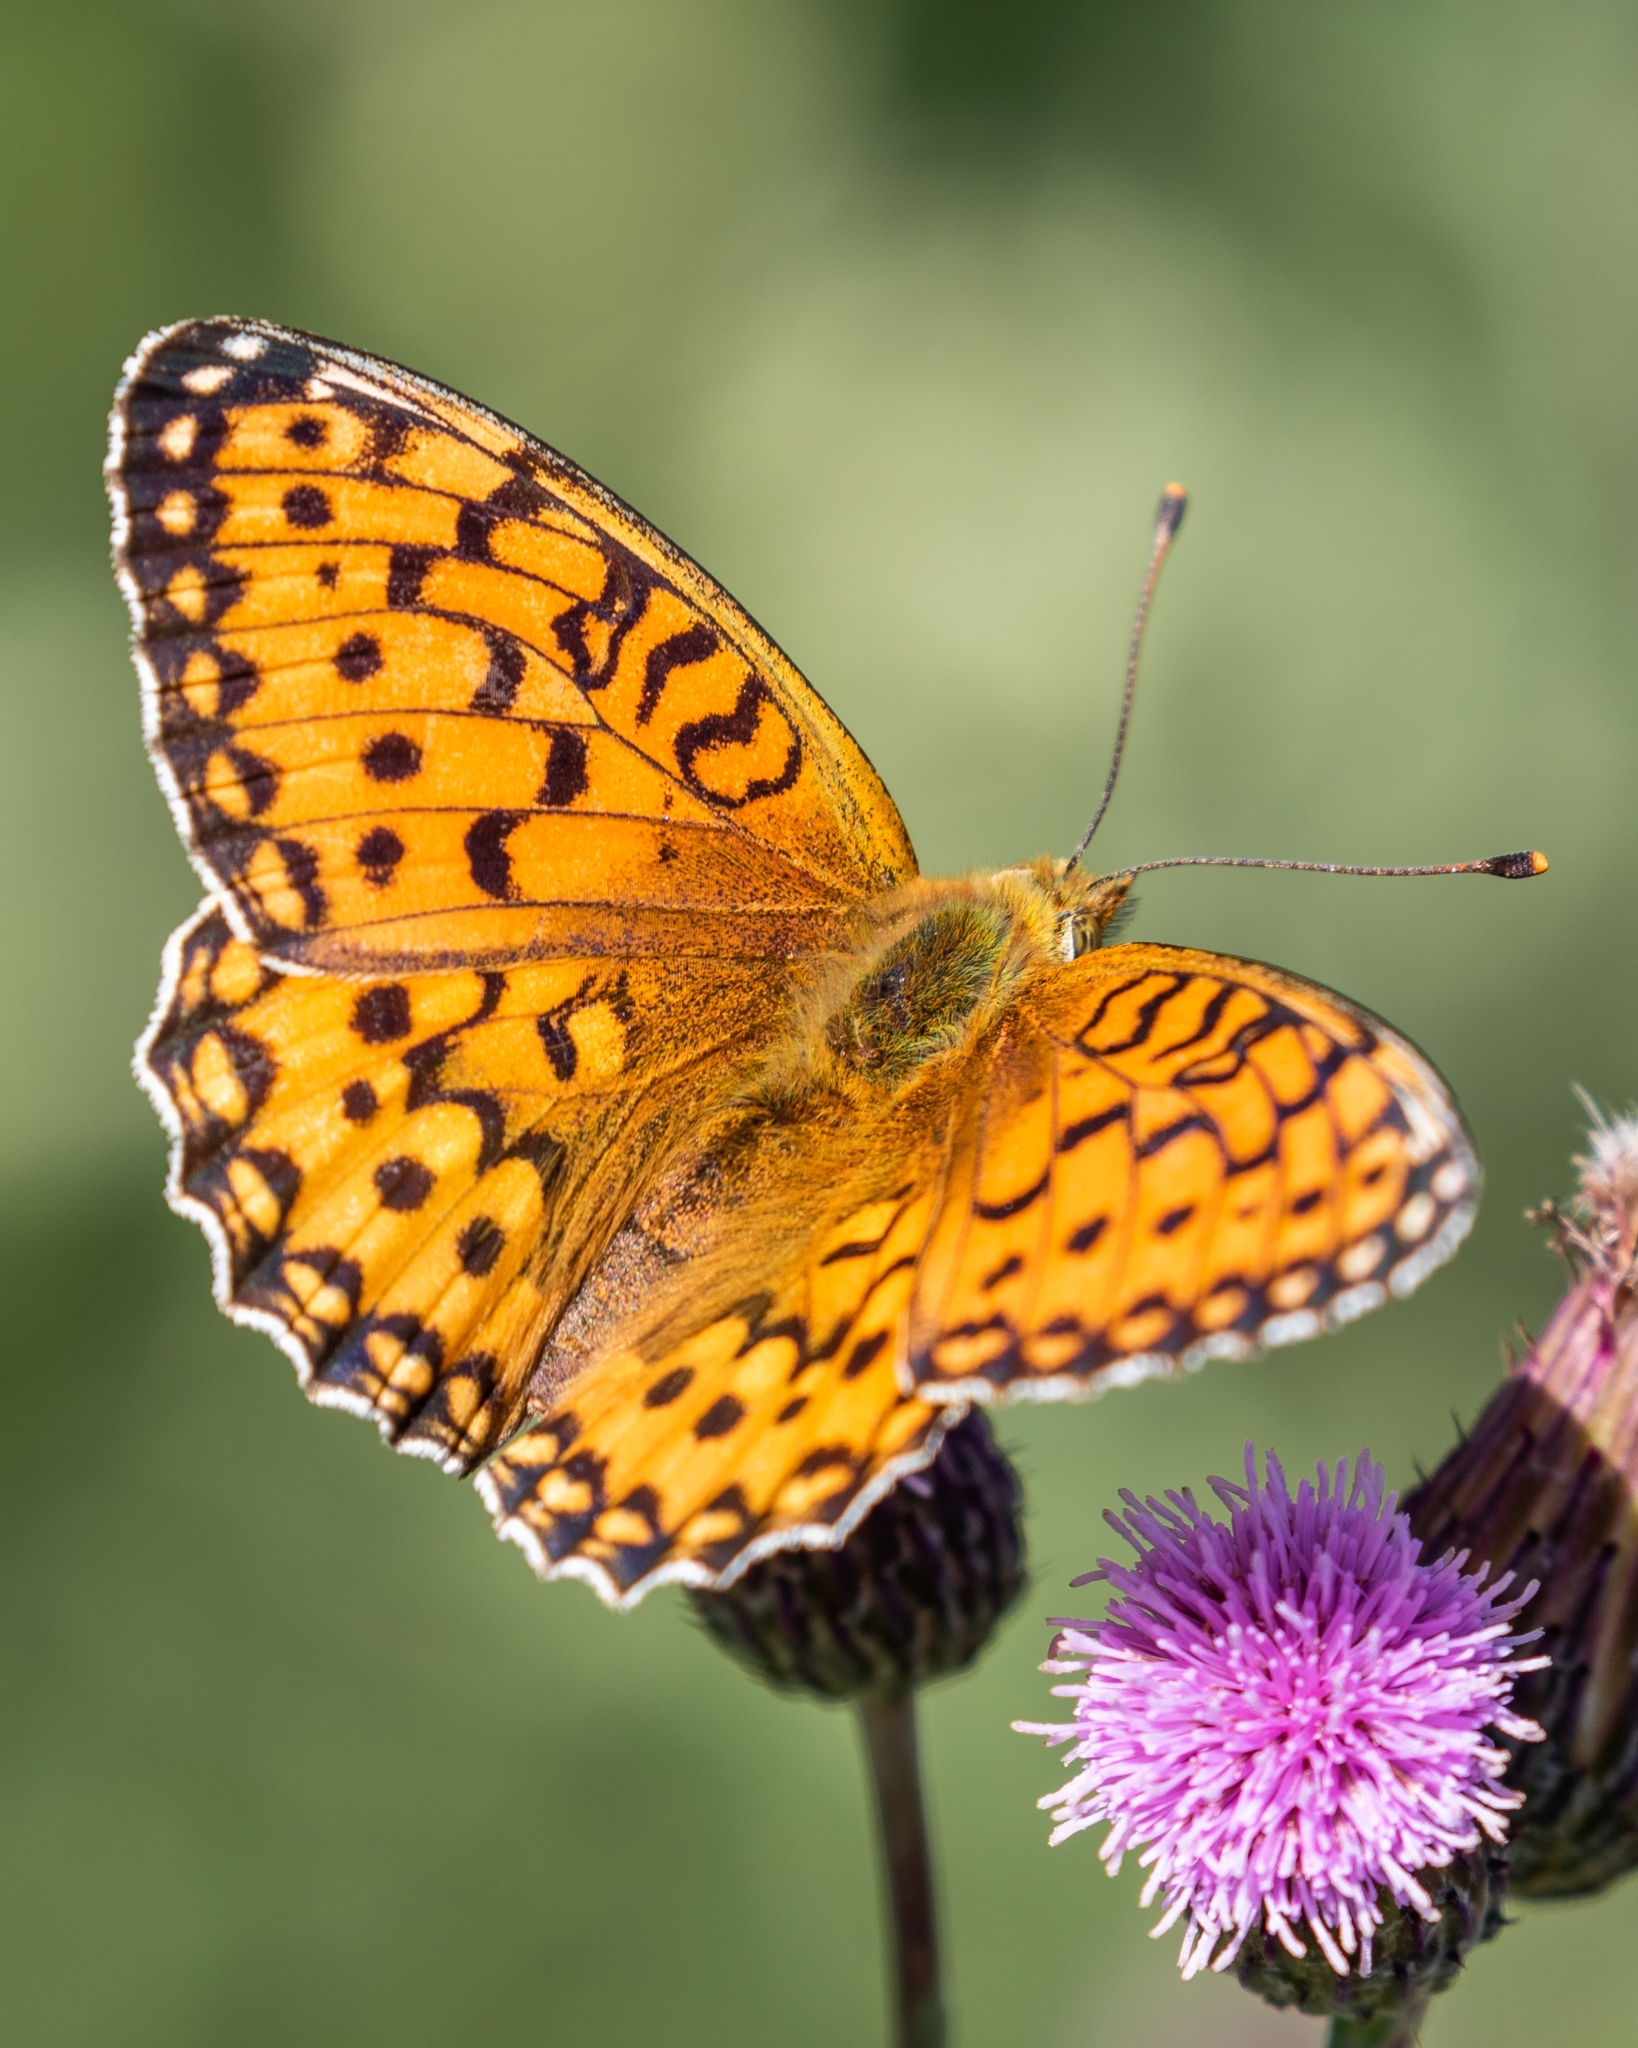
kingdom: Animalia
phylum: Arthropoda
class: Insecta
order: Lepidoptera
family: Nymphalidae
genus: Speyeria
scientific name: Speyeria aglaja
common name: Dark green fritillary
